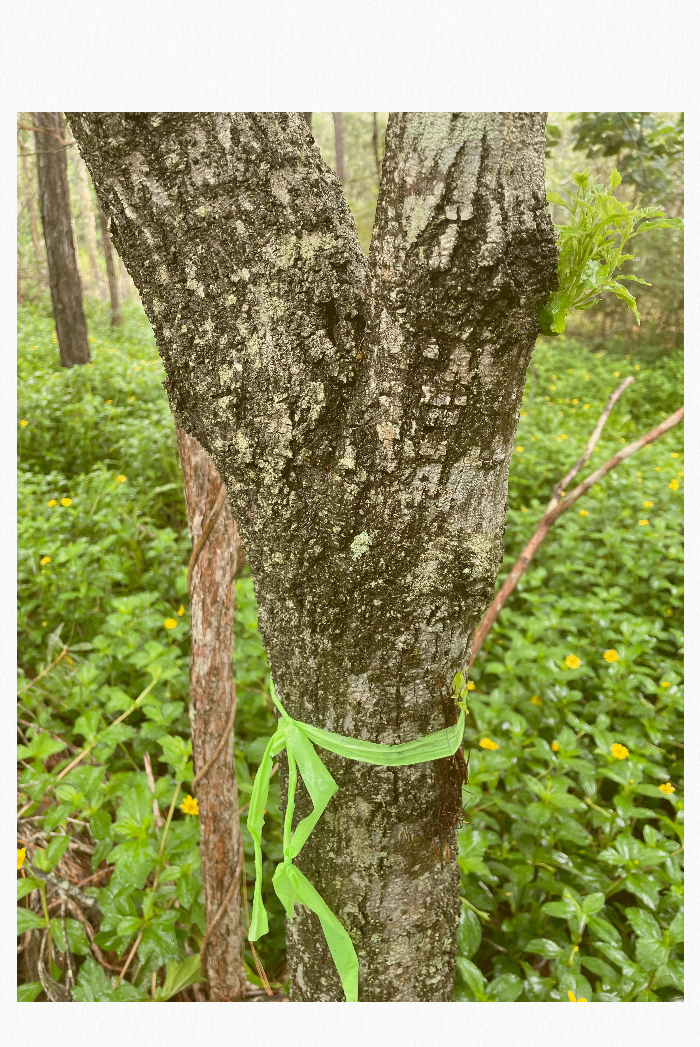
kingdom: Plantae
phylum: Tracheophyta
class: Magnoliopsida
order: Rosales
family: Rhamnaceae
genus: Alphitonia
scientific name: Alphitonia excelsa
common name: Red ash
